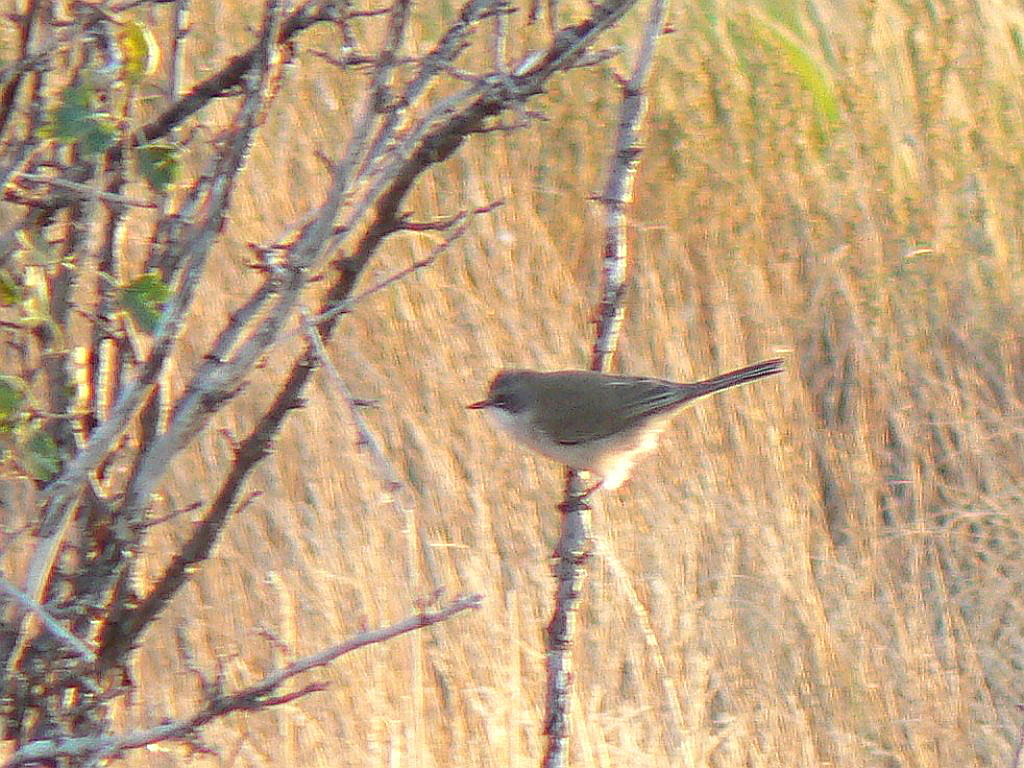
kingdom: Animalia
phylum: Chordata
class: Aves
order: Passeriformes
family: Sylviidae
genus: Sylvia
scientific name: Sylvia curruca
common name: Lesser whitethroat
